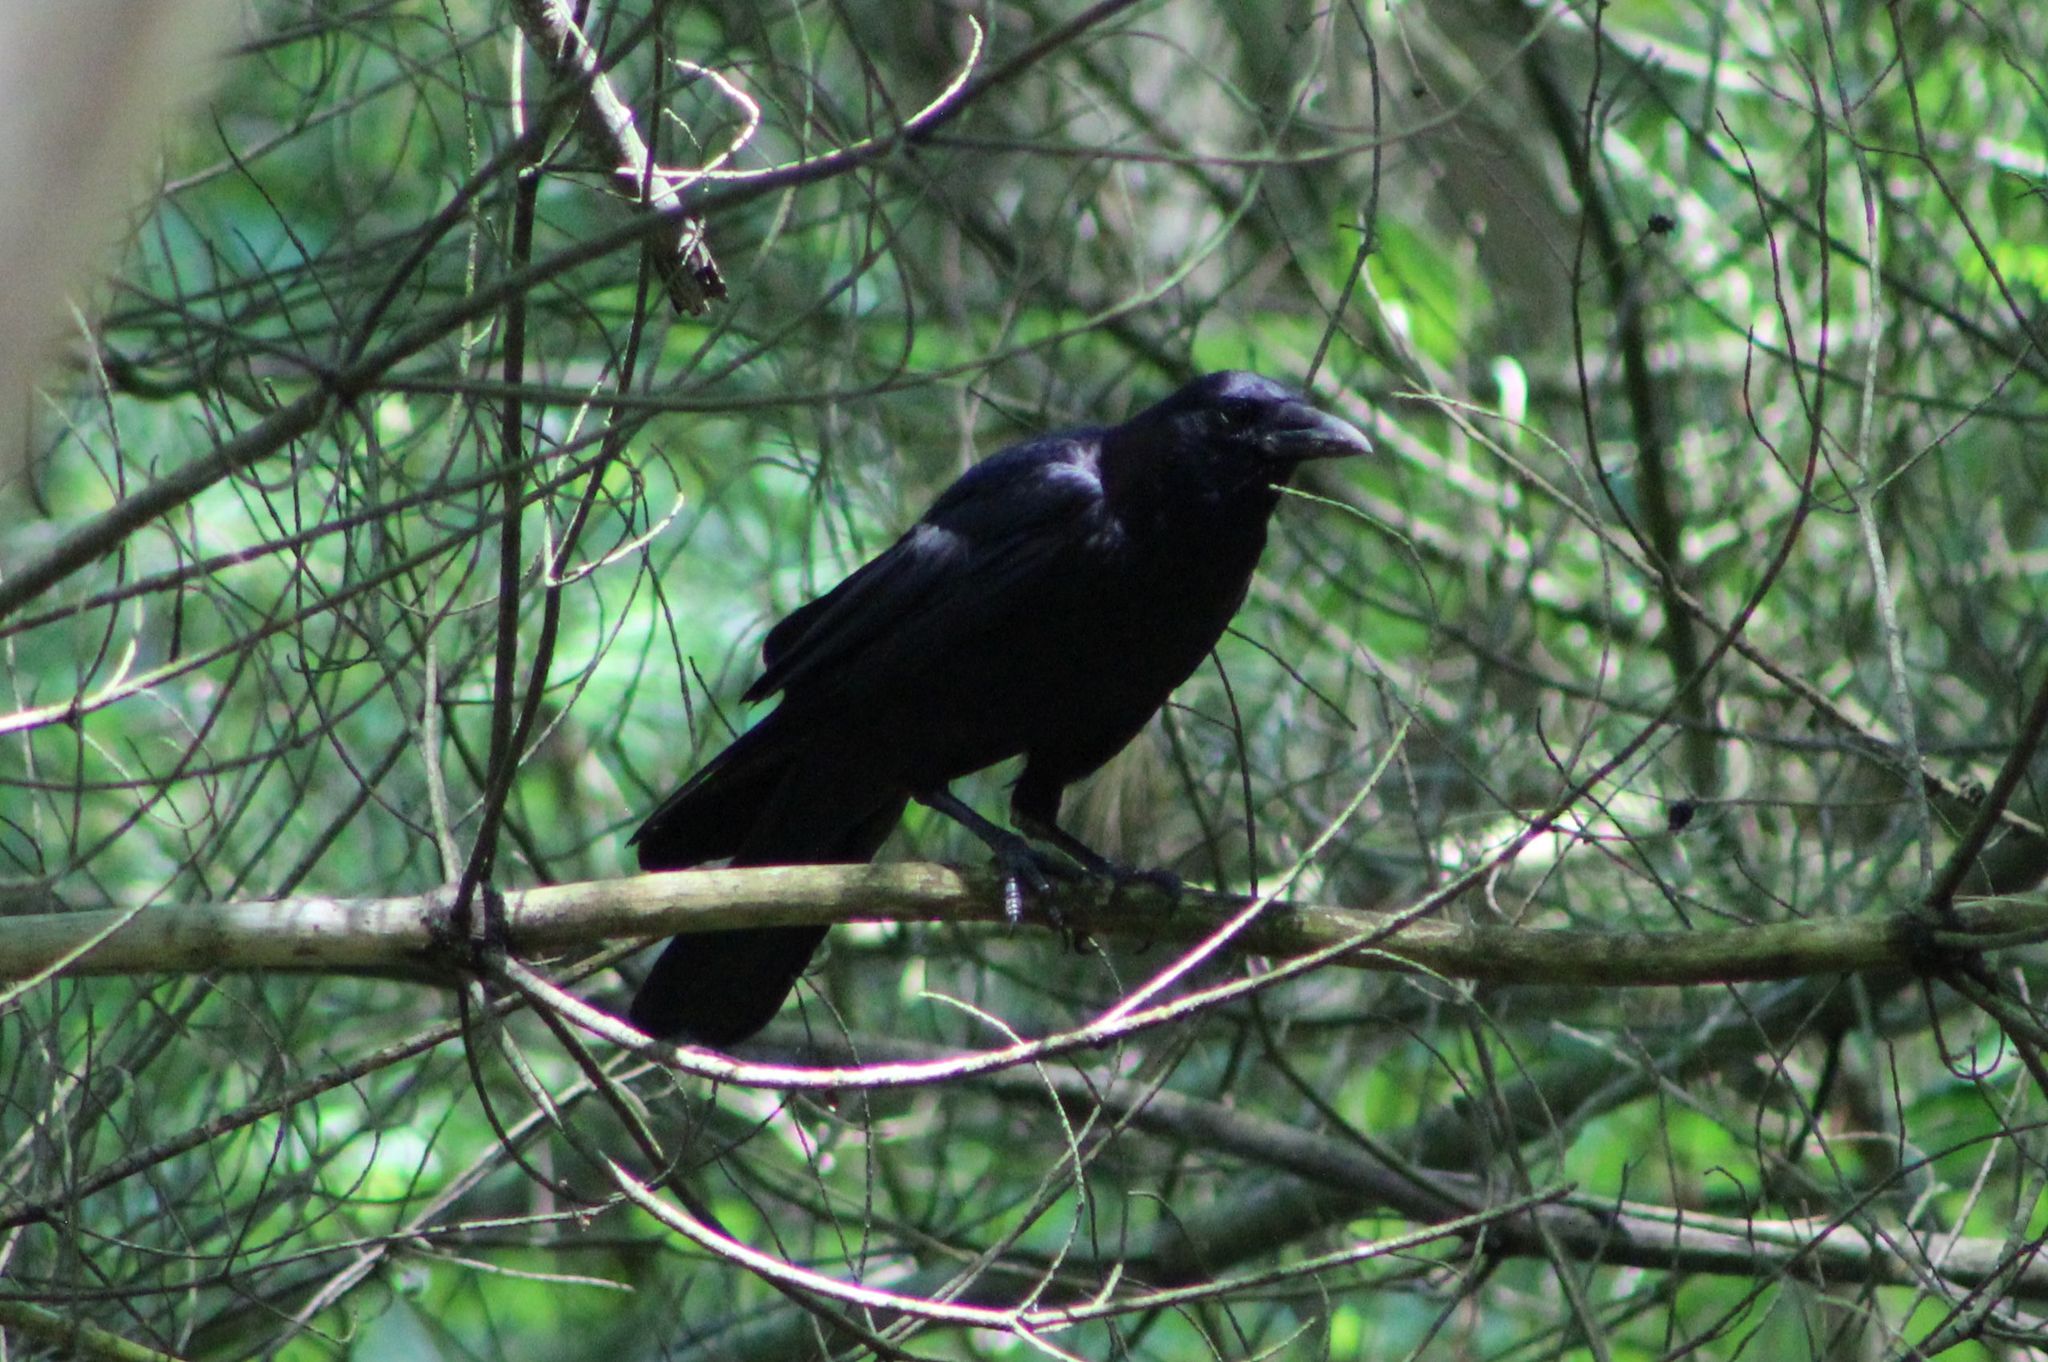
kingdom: Animalia
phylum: Chordata
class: Aves
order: Passeriformes
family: Corvidae
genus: Corvus
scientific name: Corvus brachyrhynchos
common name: American crow
